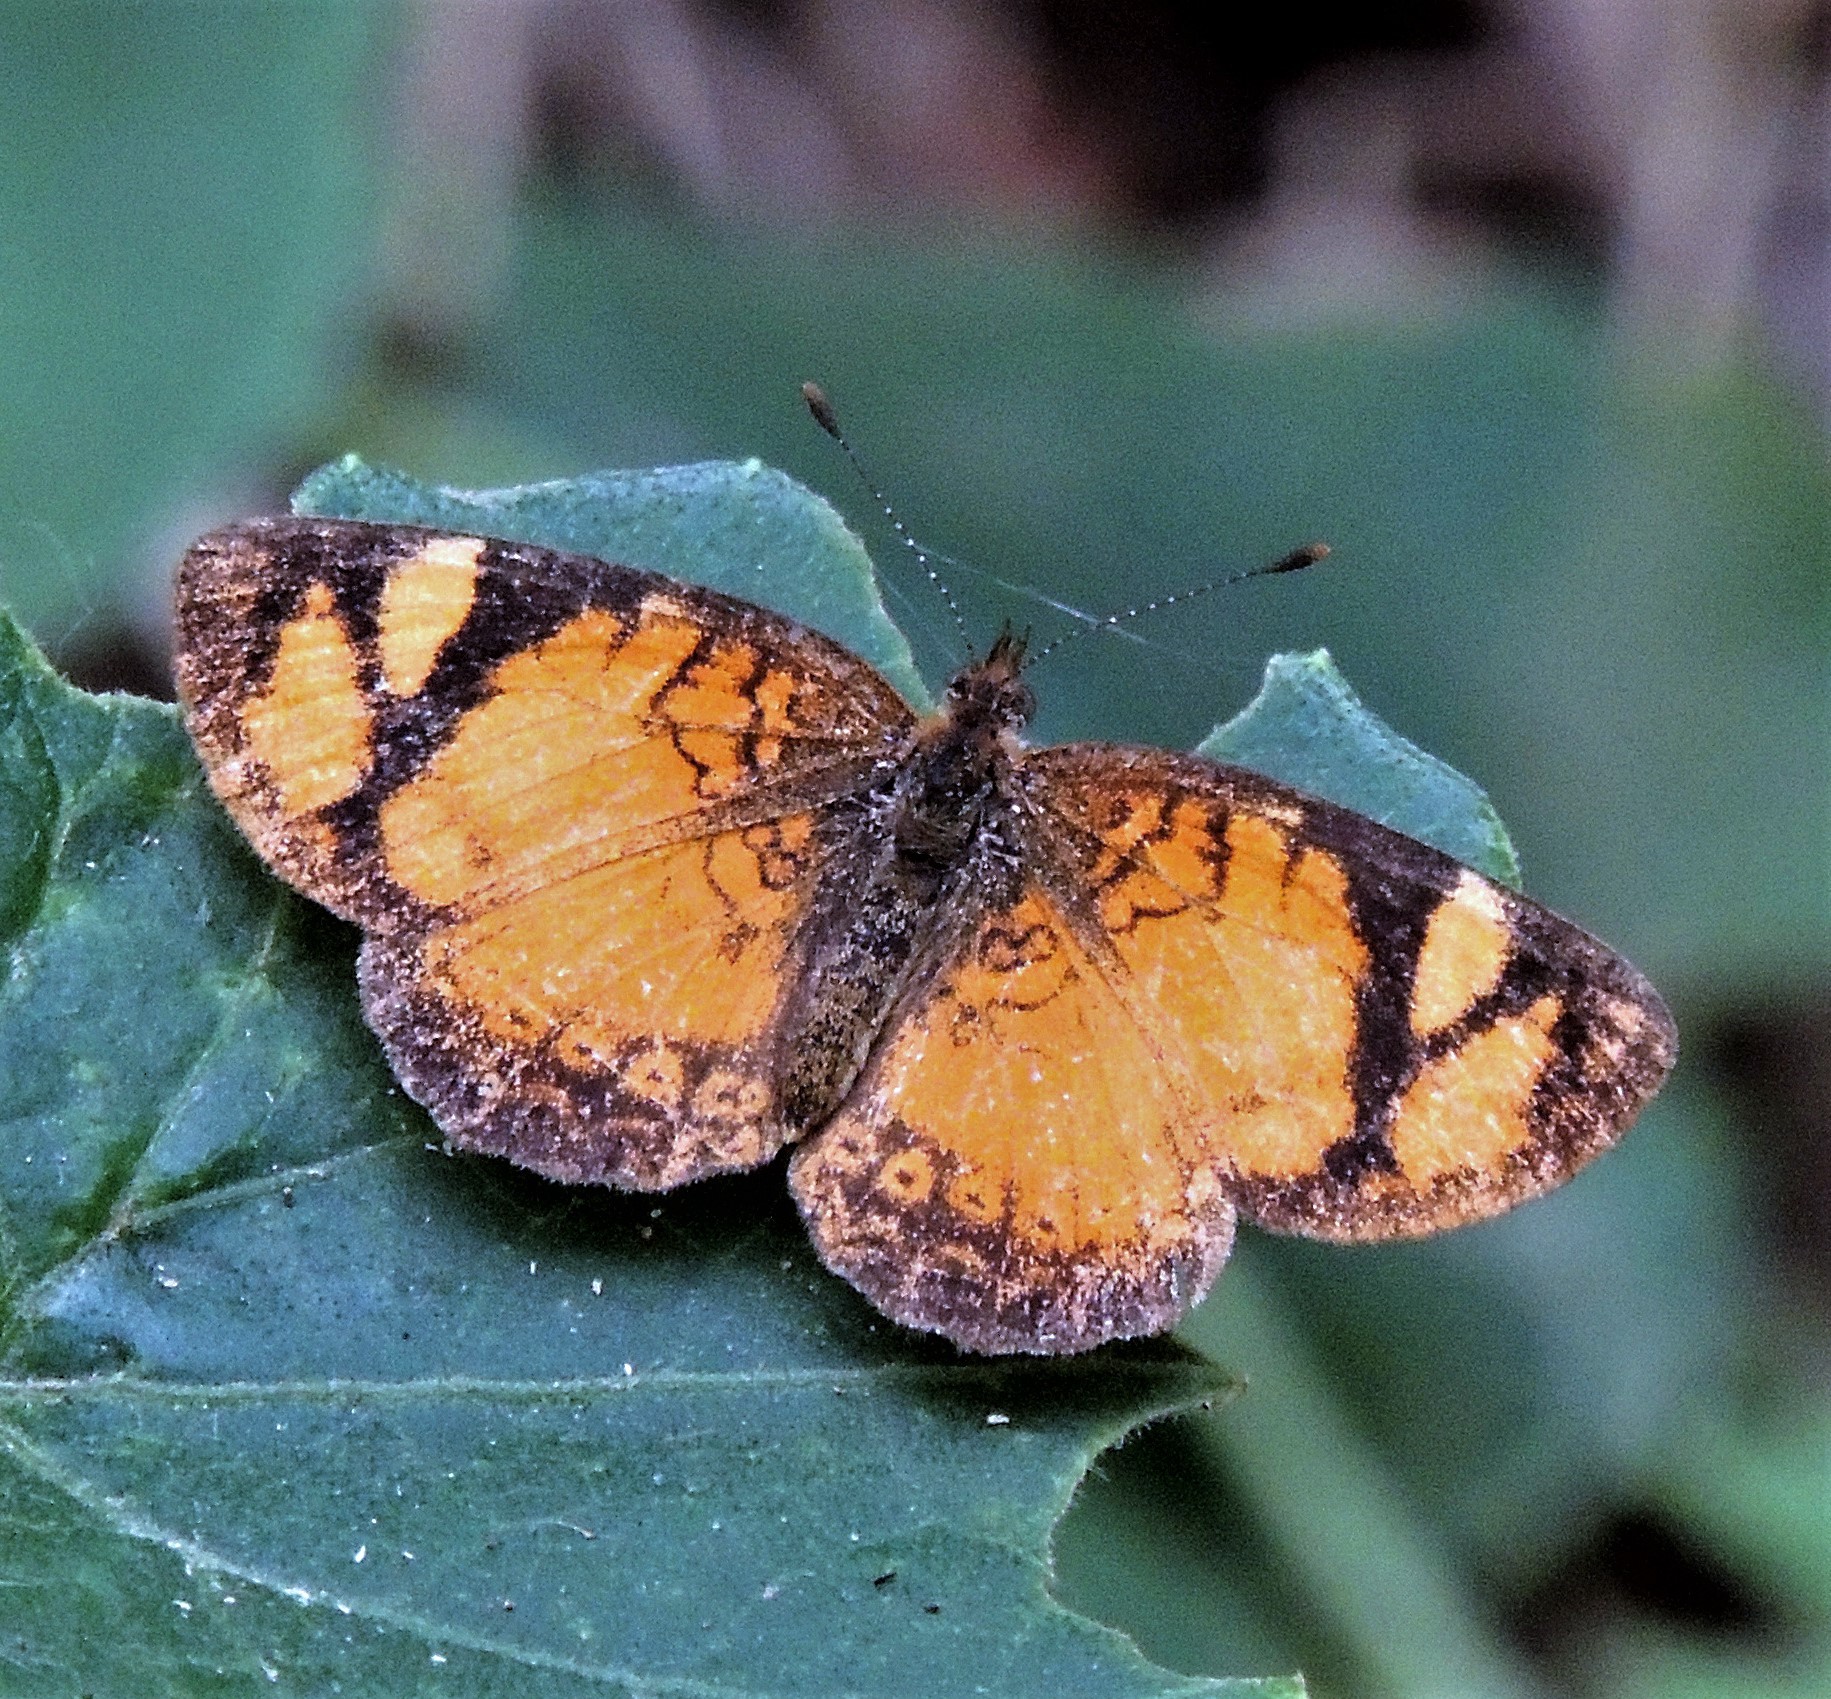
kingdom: Animalia
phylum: Arthropoda
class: Insecta
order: Lepidoptera
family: Nymphalidae
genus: Tegosa
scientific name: Tegosa claudina
